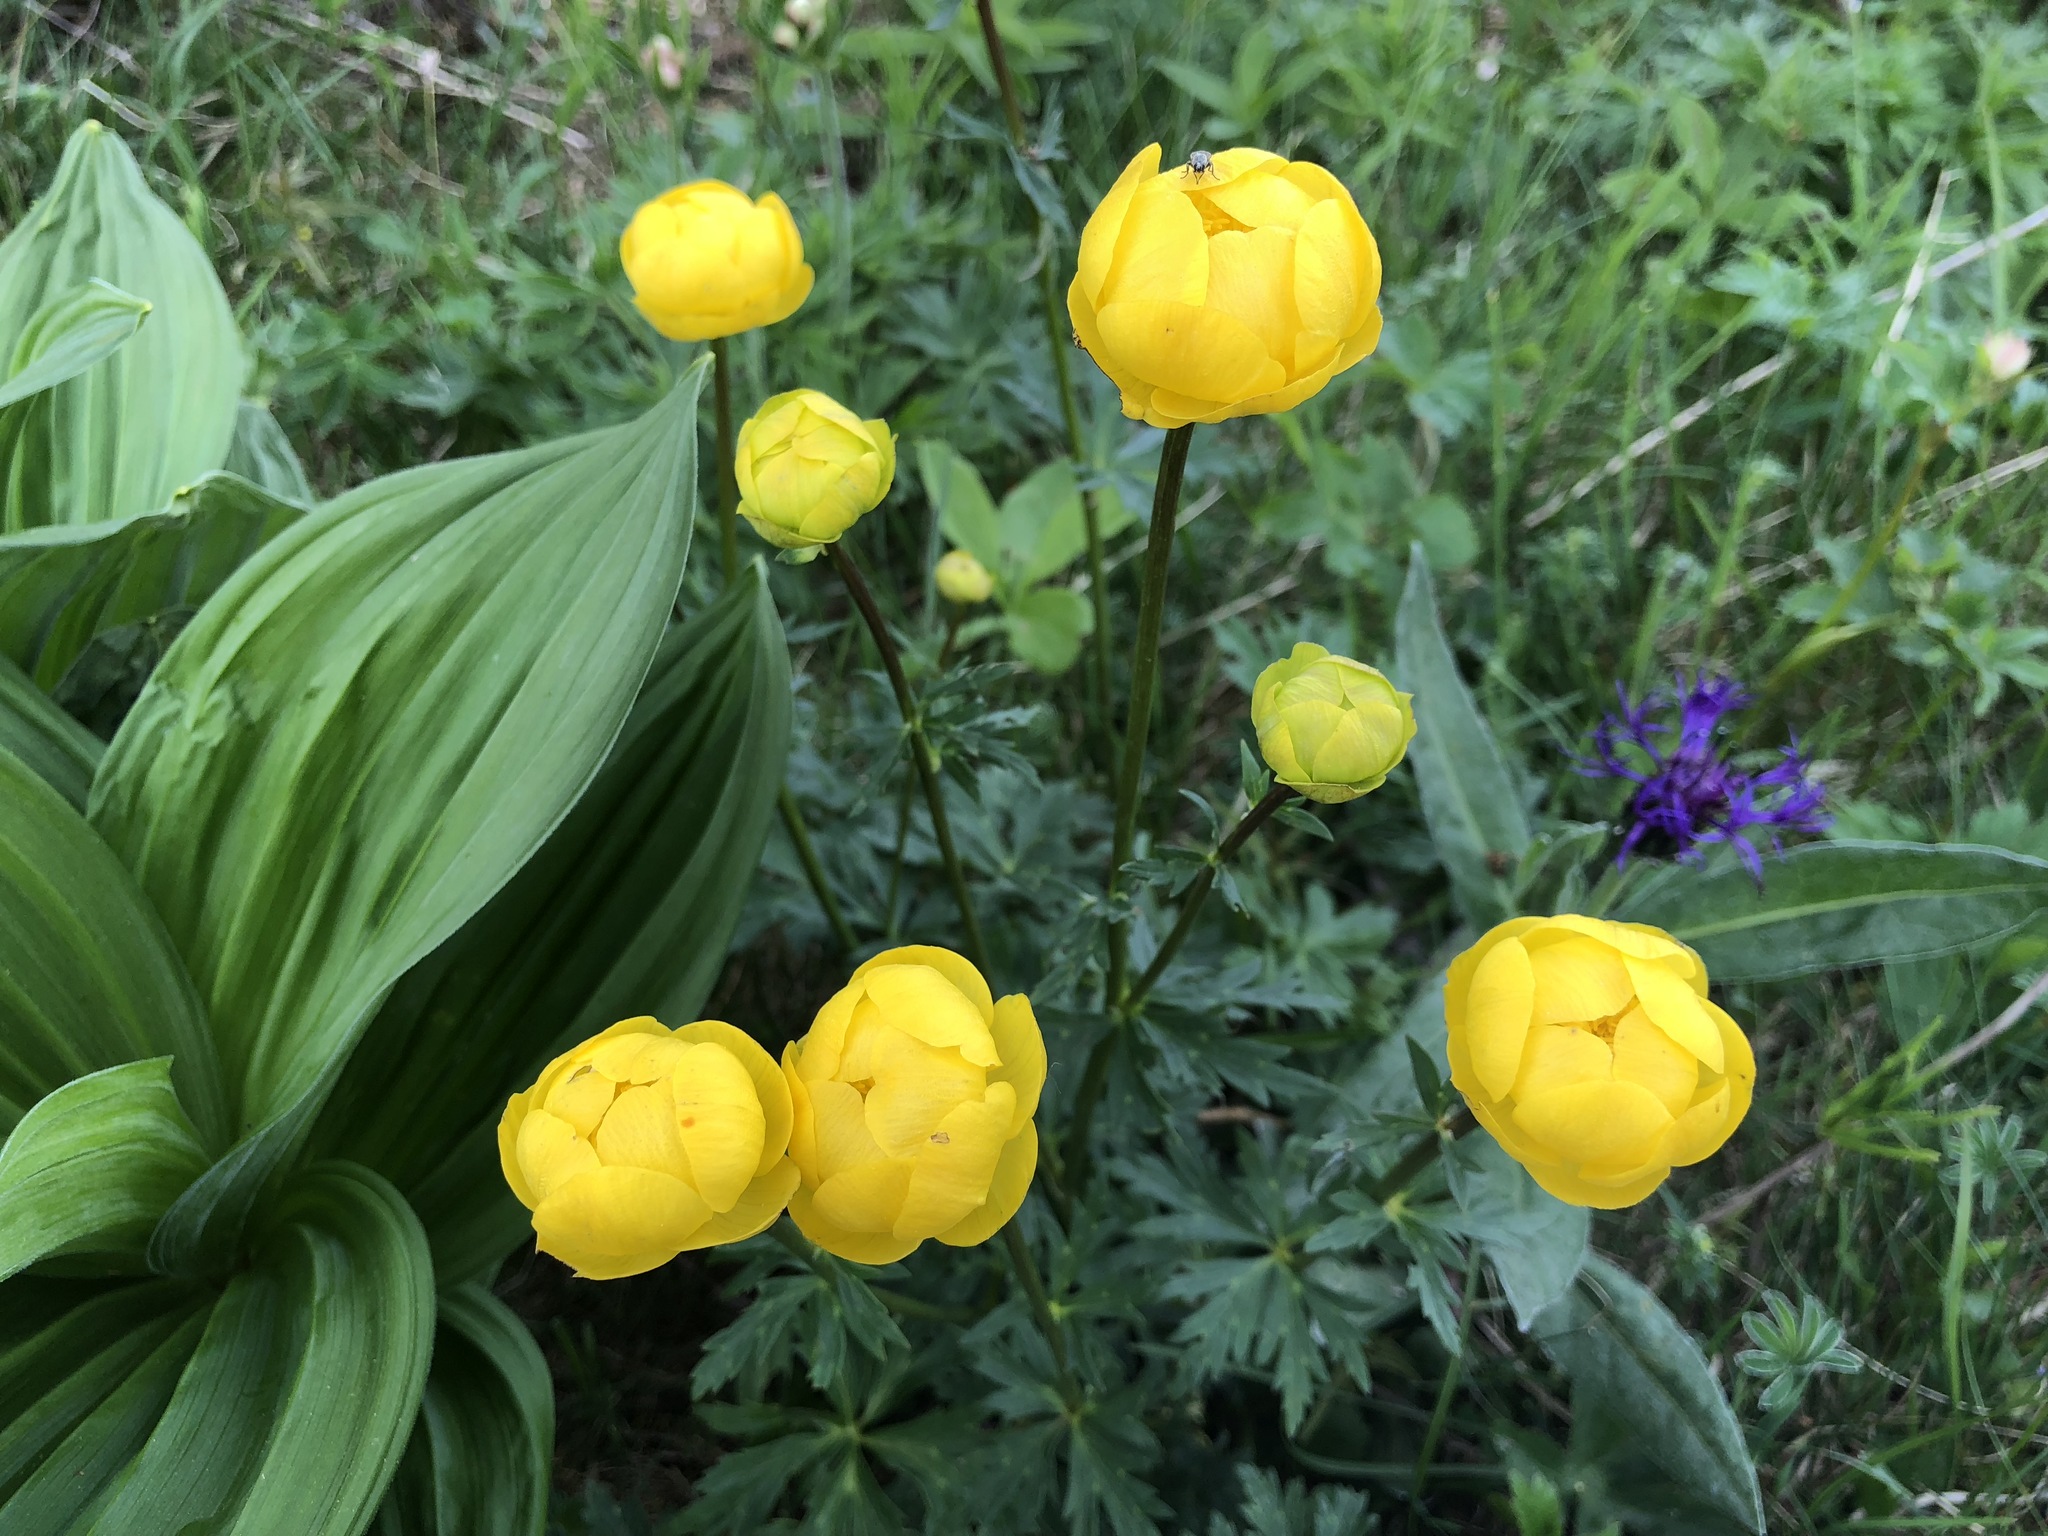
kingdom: Plantae
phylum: Tracheophyta
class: Magnoliopsida
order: Ranunculales
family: Ranunculaceae
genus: Trollius
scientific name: Trollius europaeus
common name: European globeflower
